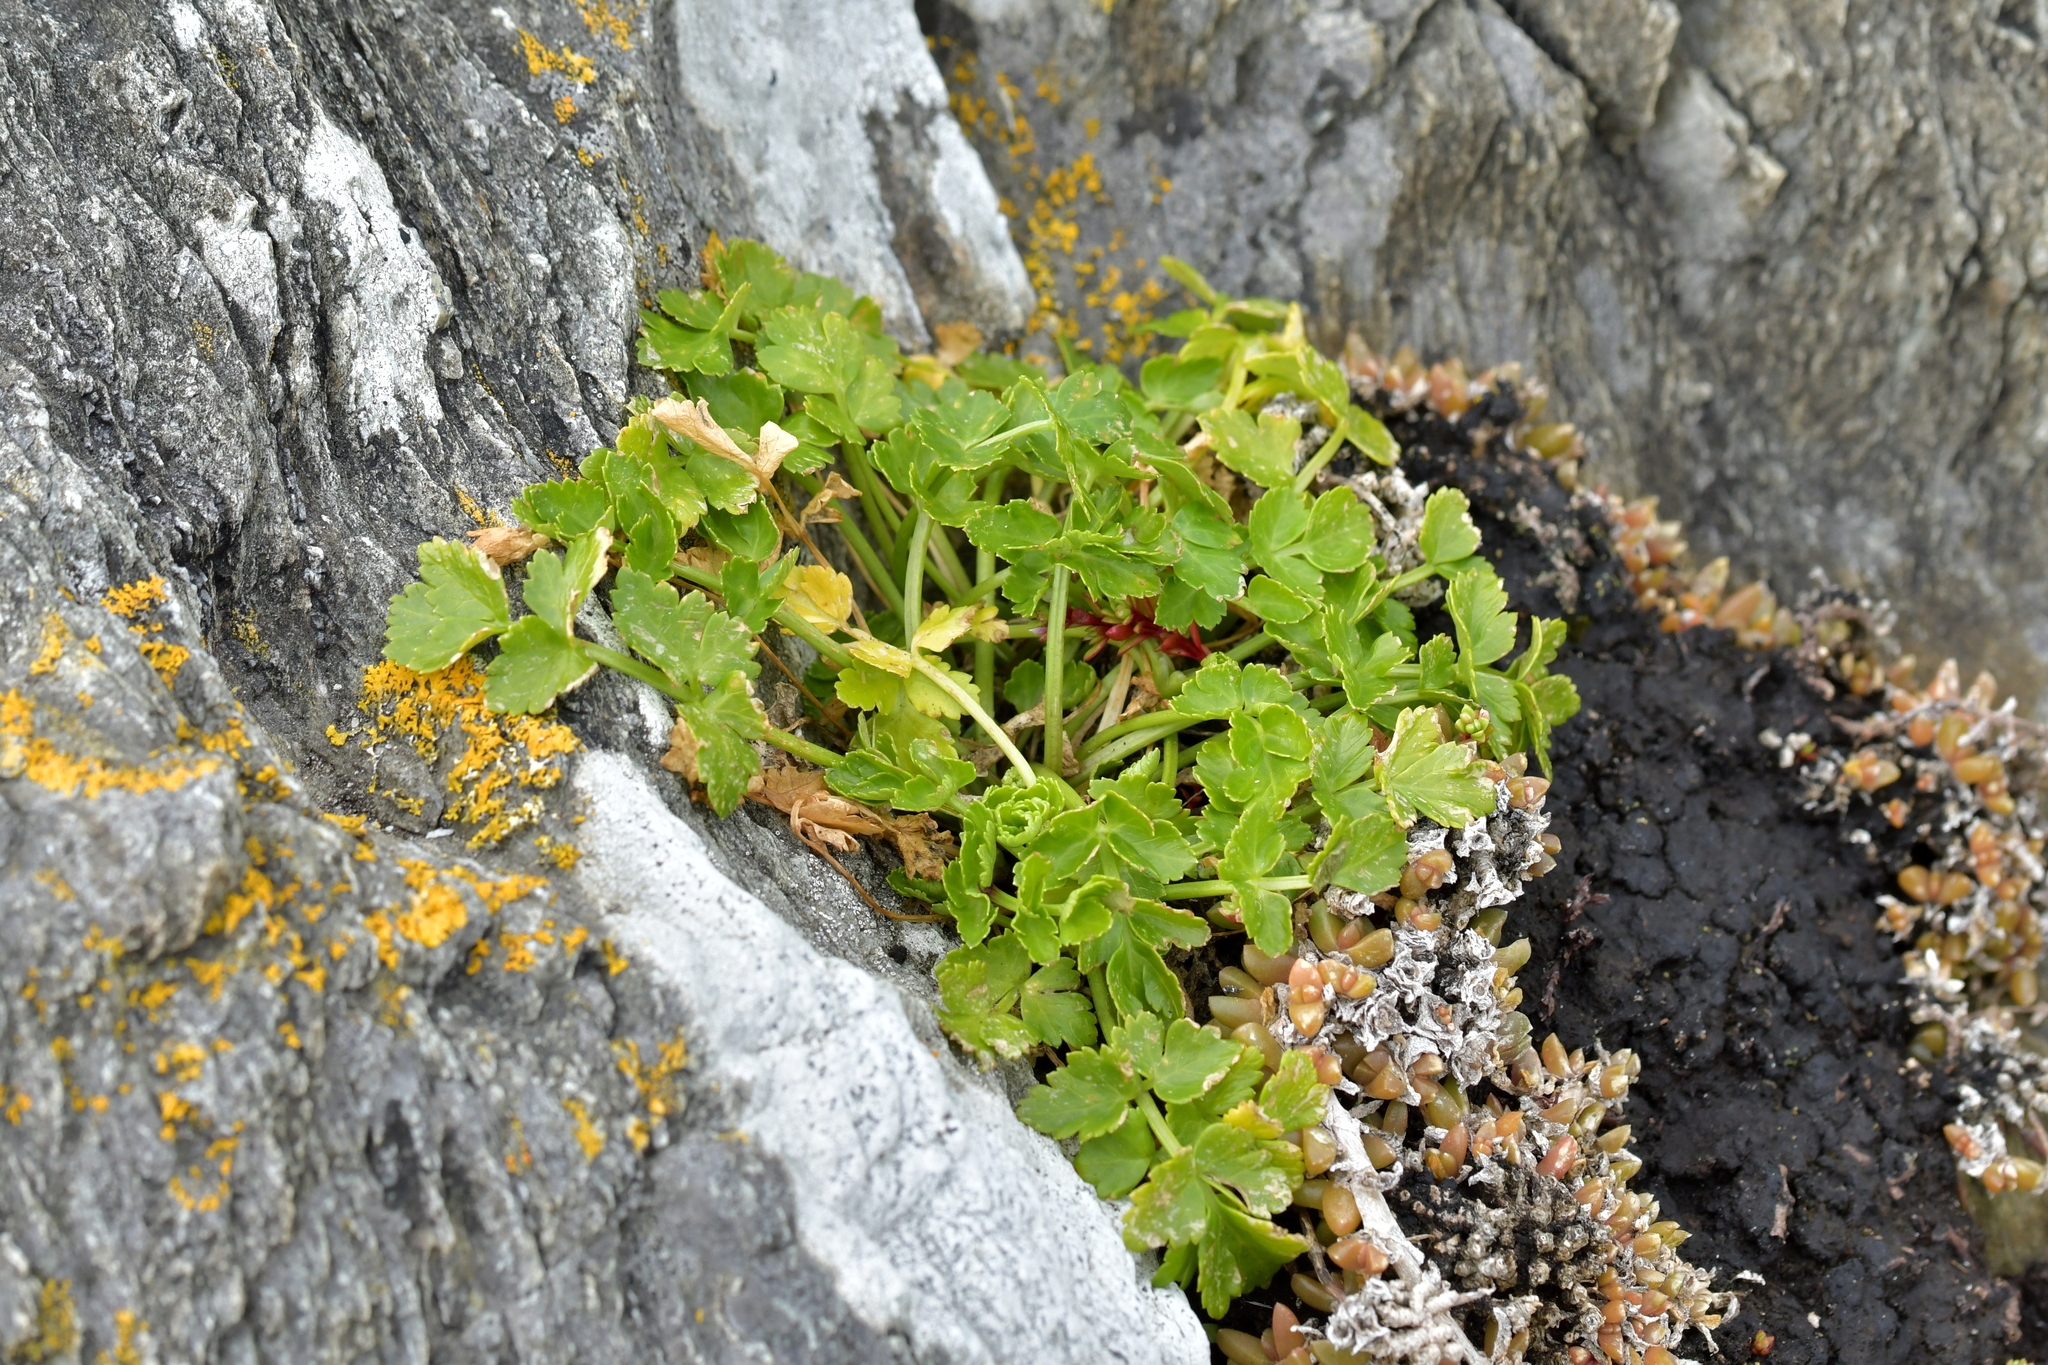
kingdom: Plantae
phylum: Tracheophyta
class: Magnoliopsida
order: Apiales
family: Apiaceae
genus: Apium
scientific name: Apium prostratum
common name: Prostrate marshwort
